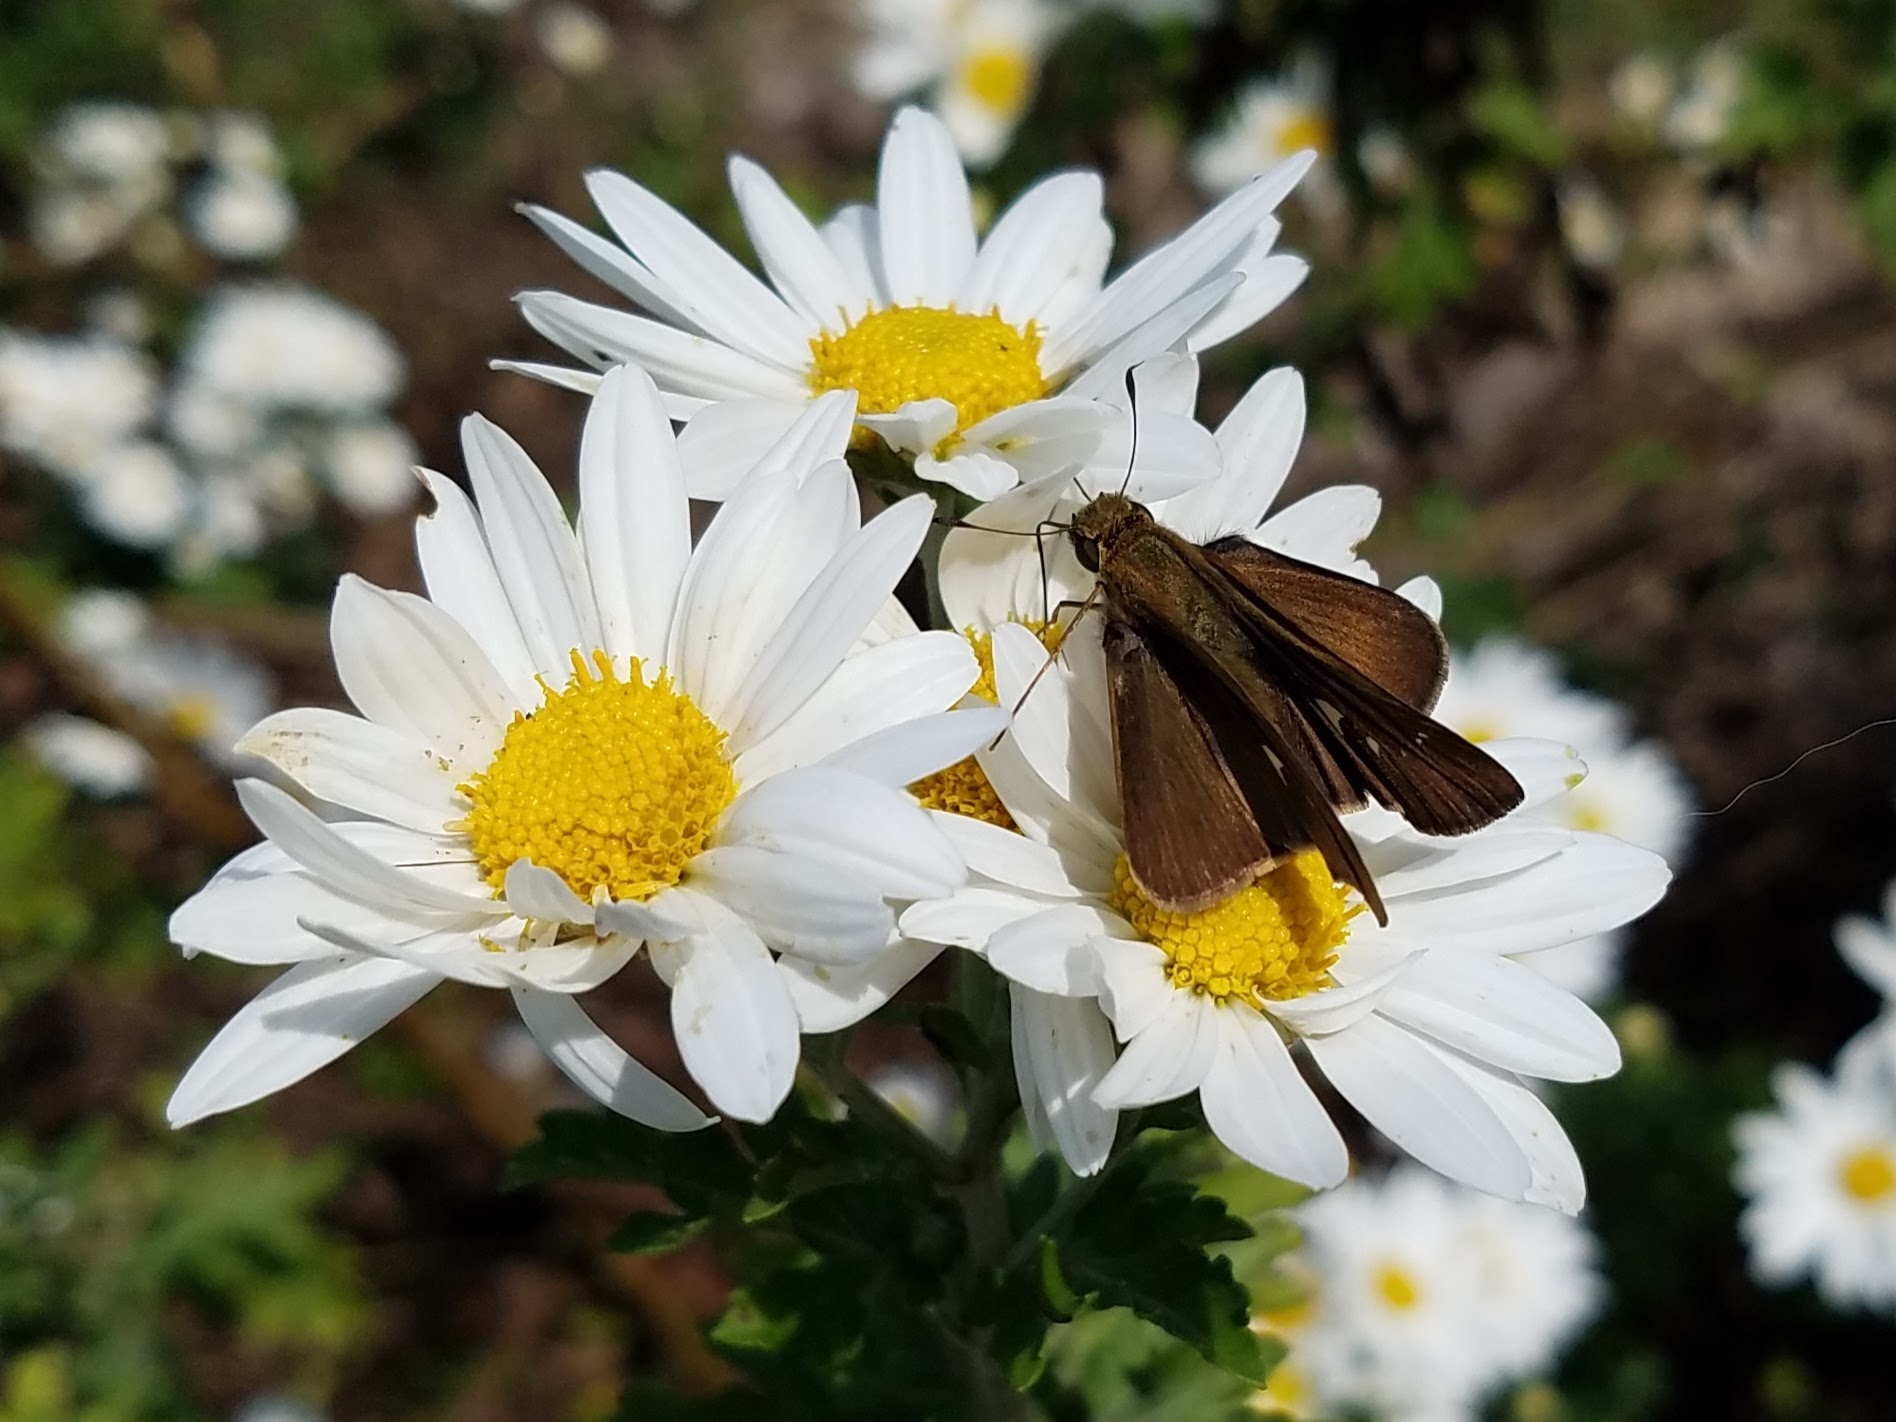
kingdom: Animalia
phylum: Arthropoda
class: Insecta
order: Lepidoptera
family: Hesperiidae
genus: Panoquina
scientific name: Panoquina ocola
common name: Ocola skipper
